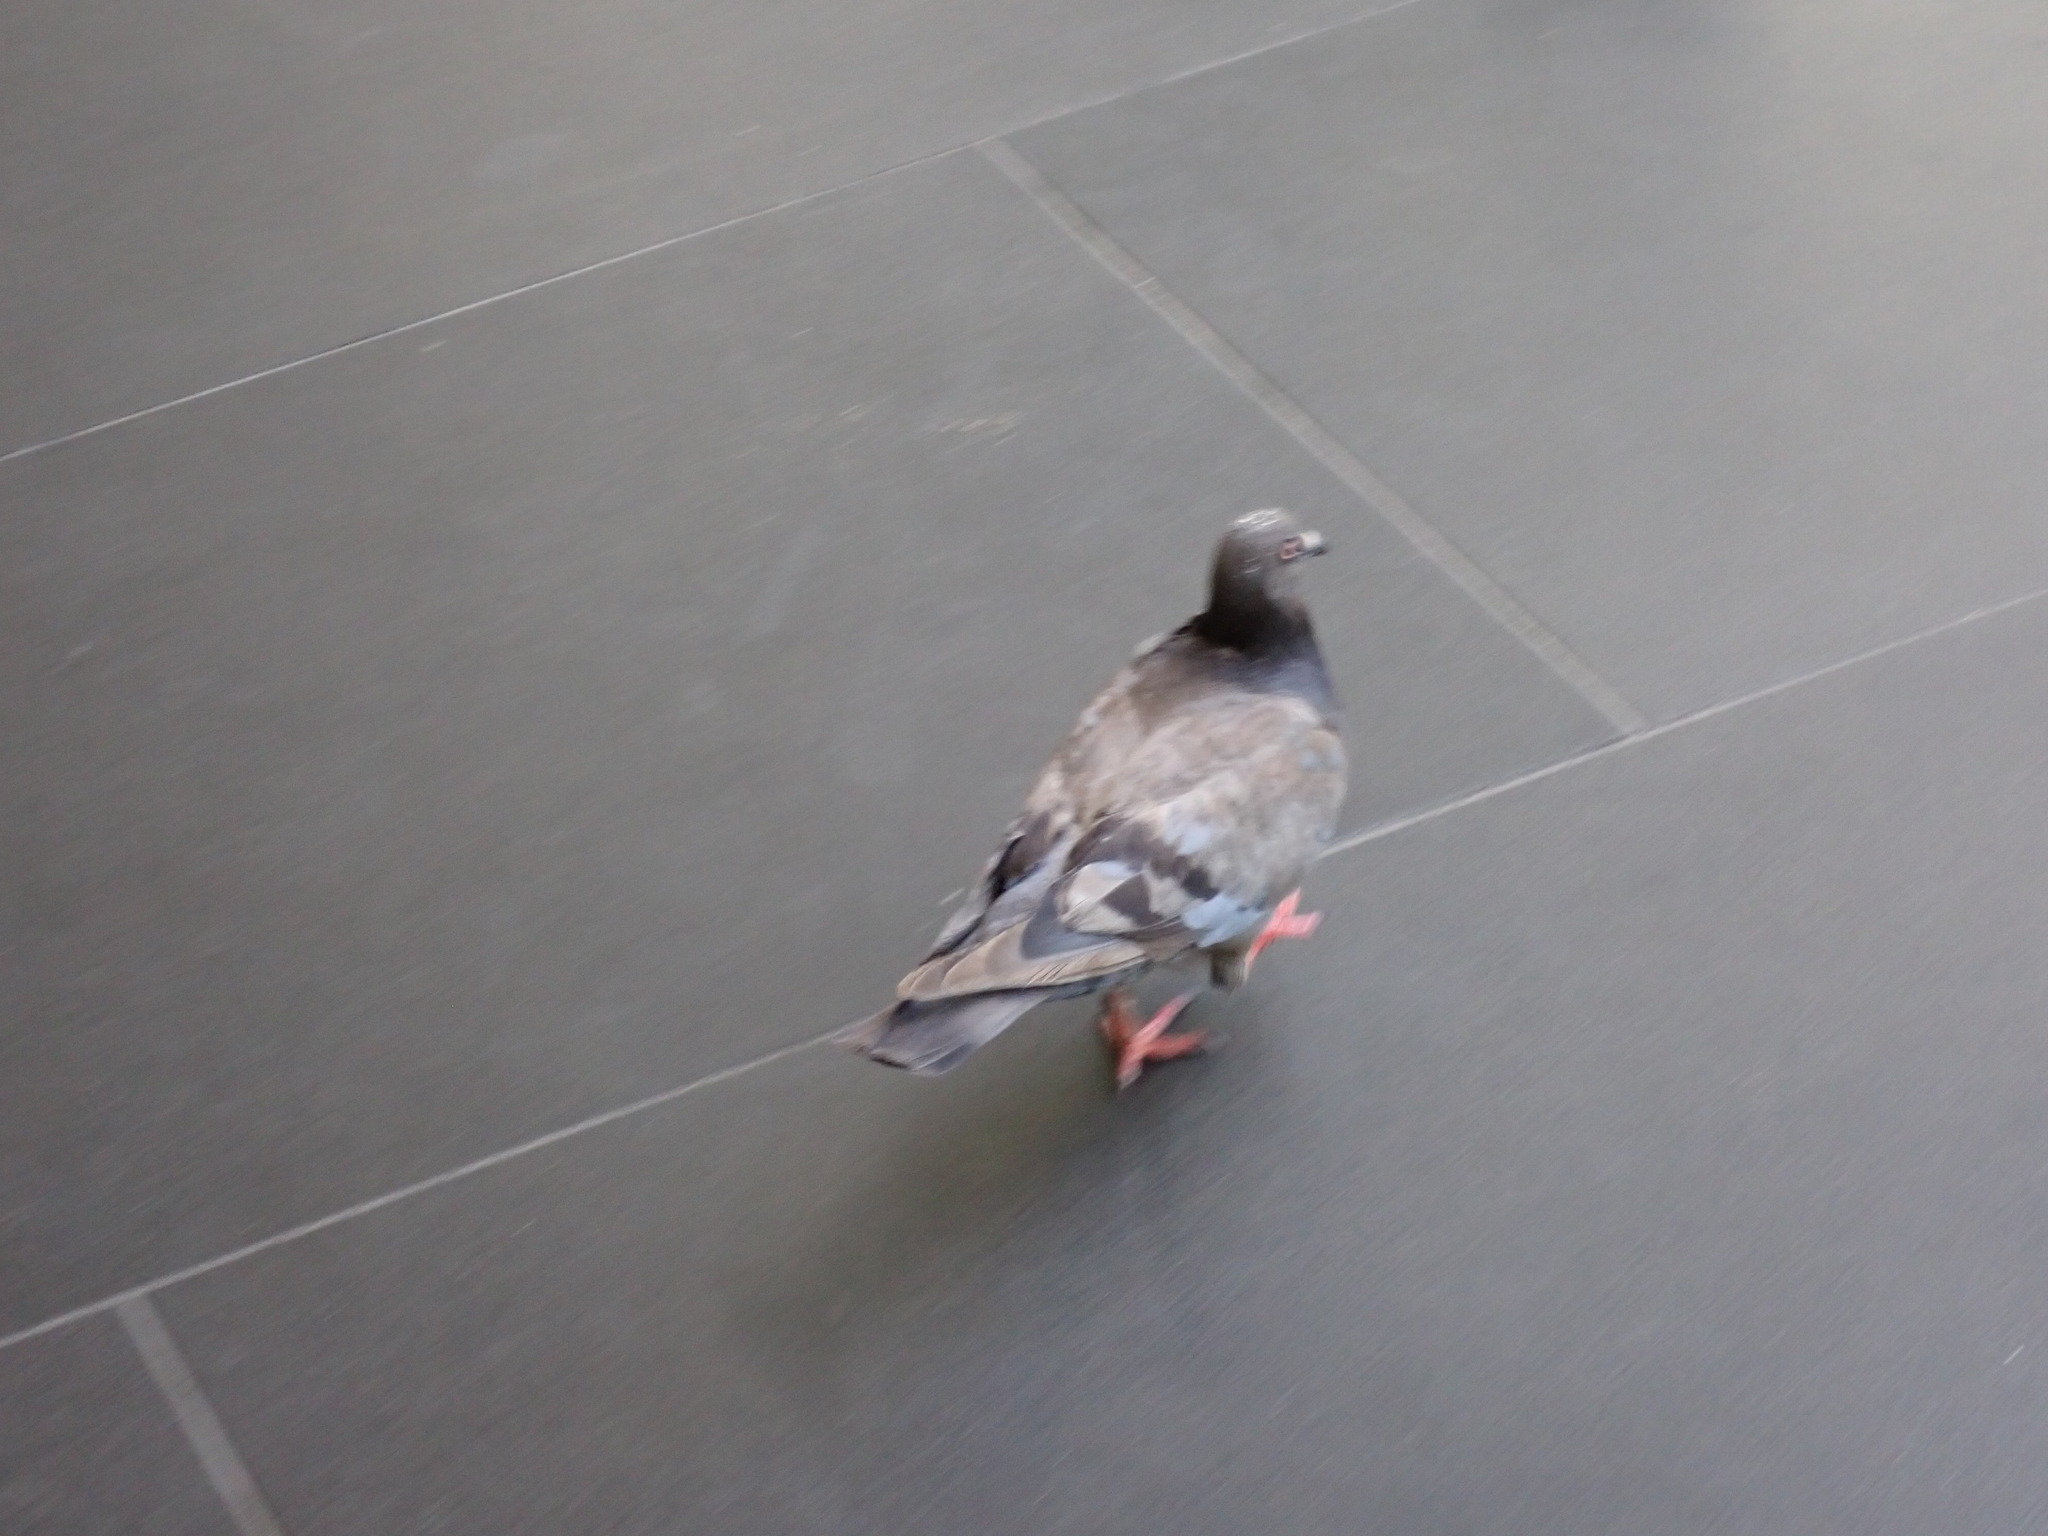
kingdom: Animalia
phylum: Chordata
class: Aves
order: Columbiformes
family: Columbidae
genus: Columba
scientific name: Columba livia
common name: Rock pigeon
